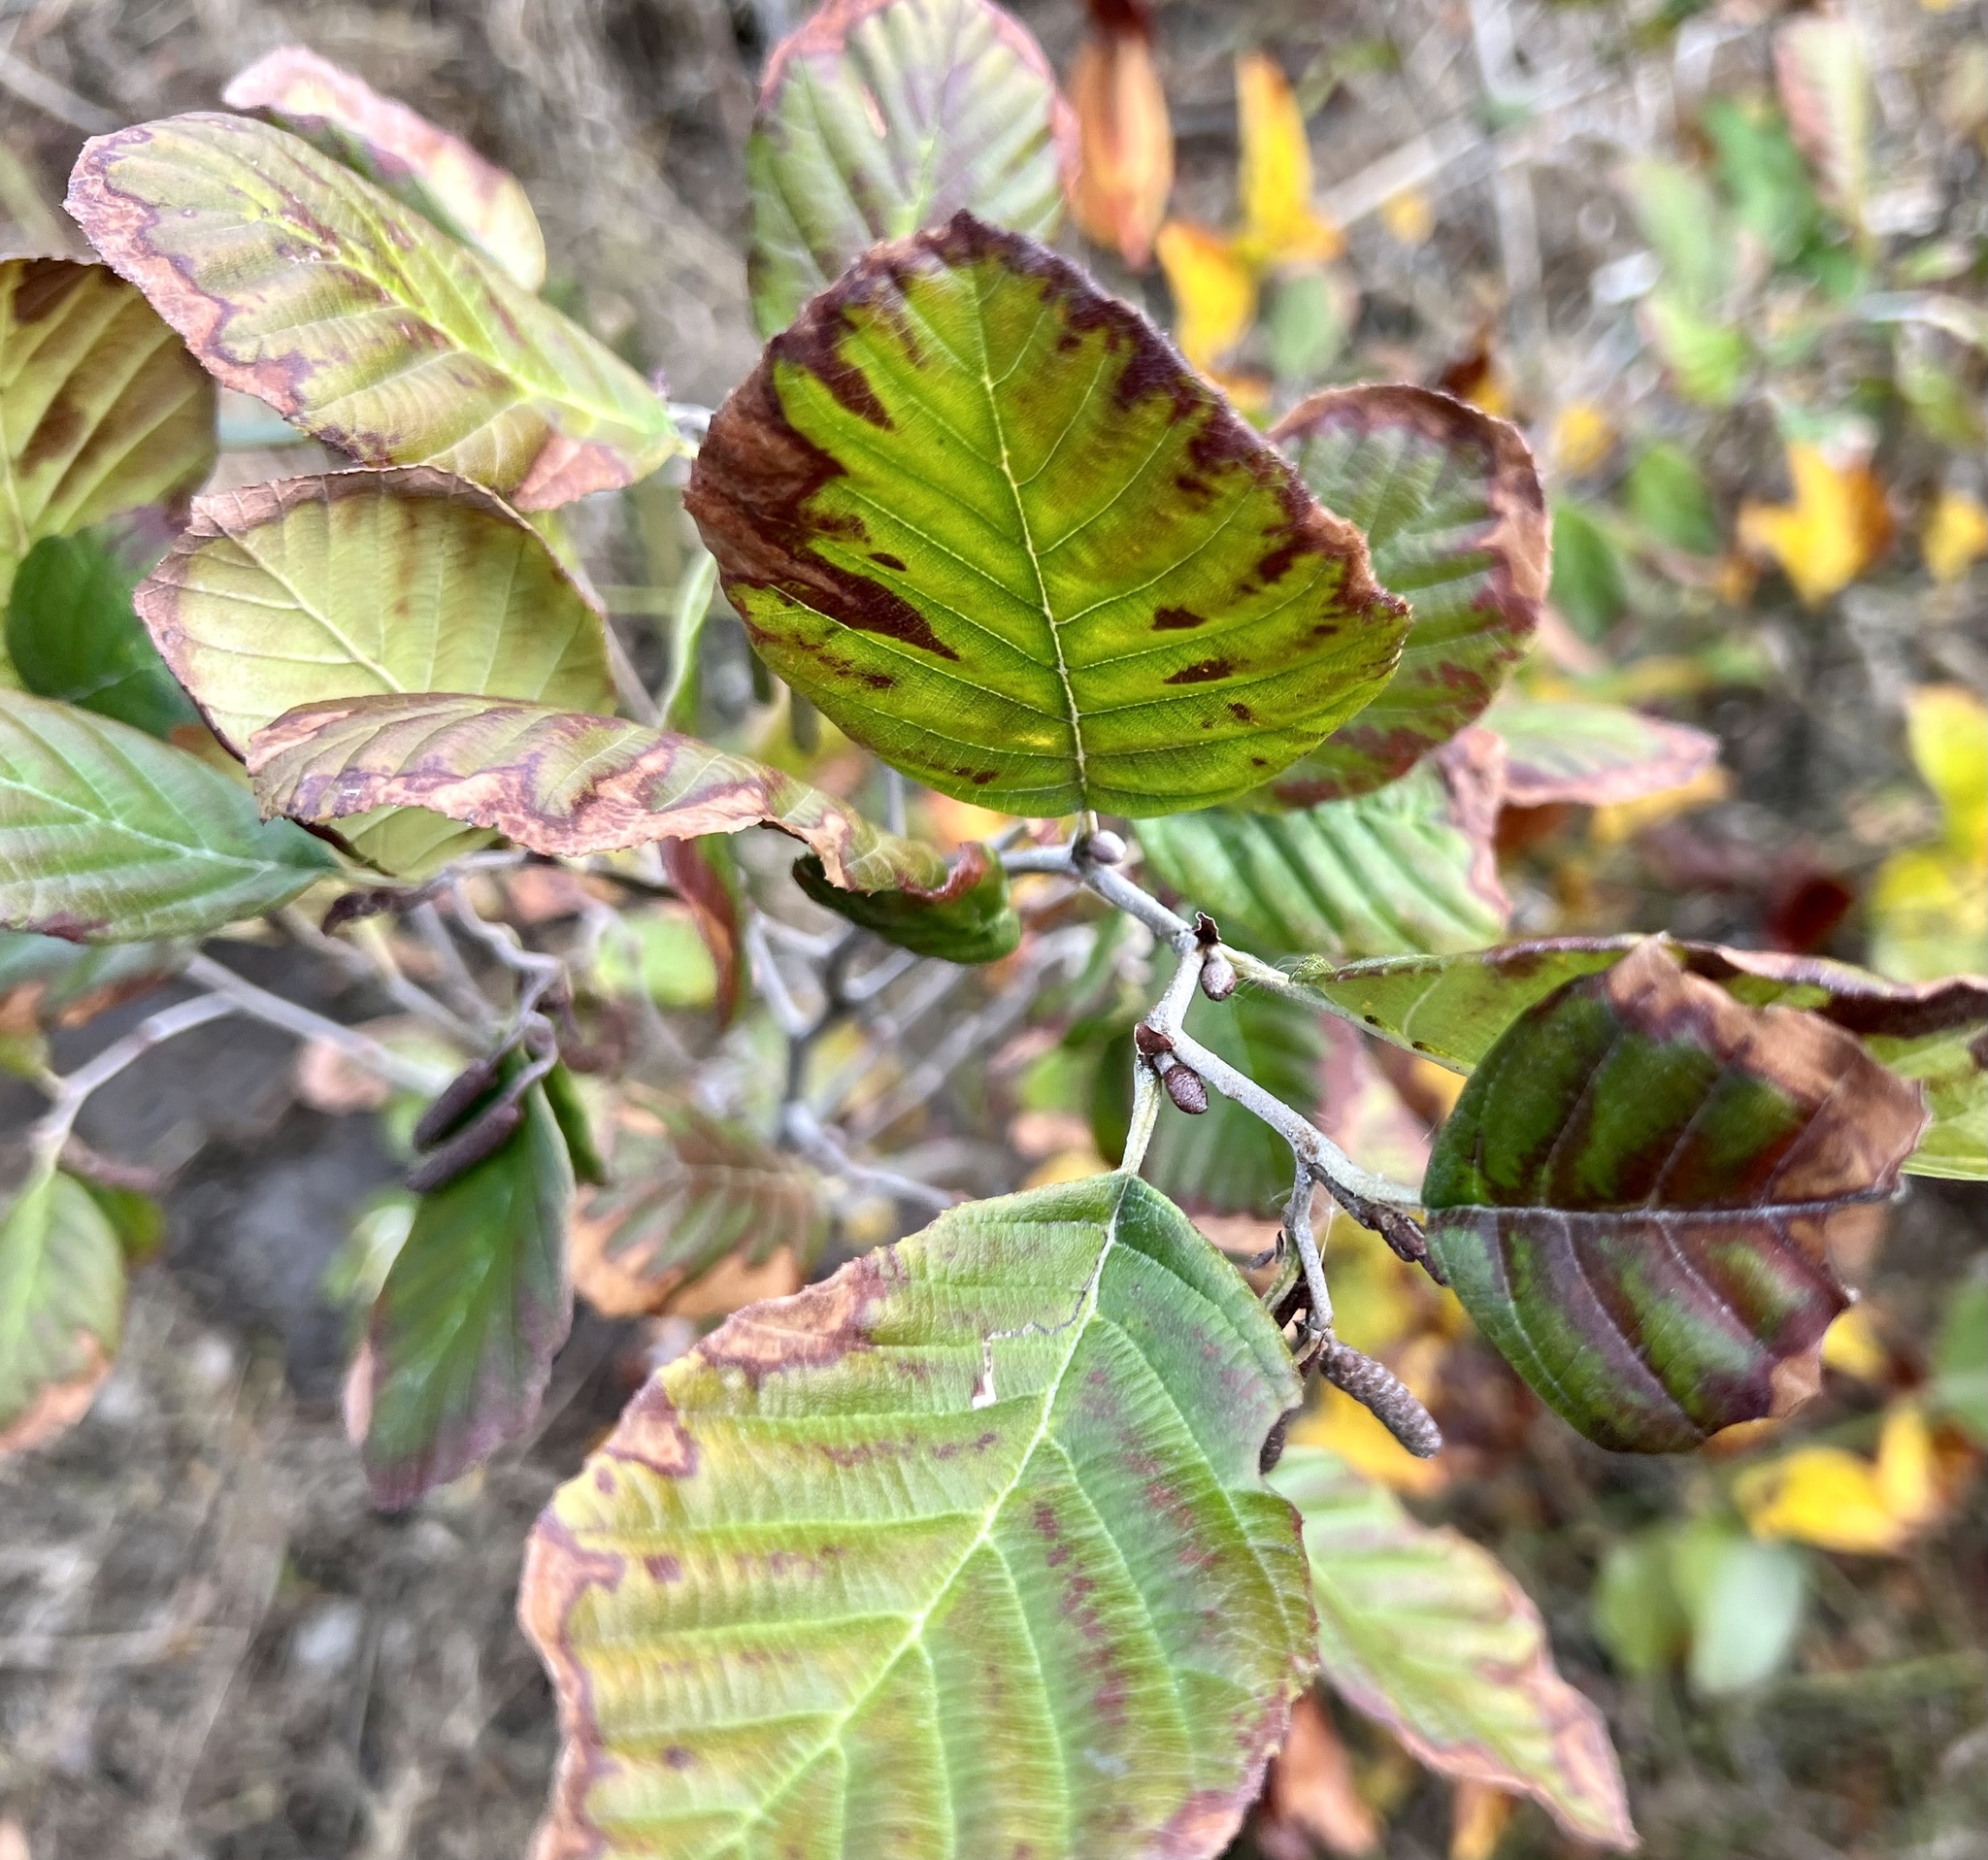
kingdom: Plantae
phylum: Tracheophyta
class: Magnoliopsida
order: Fagales
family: Betulaceae
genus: Alnus
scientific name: Alnus serrulata
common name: Hazel alder
